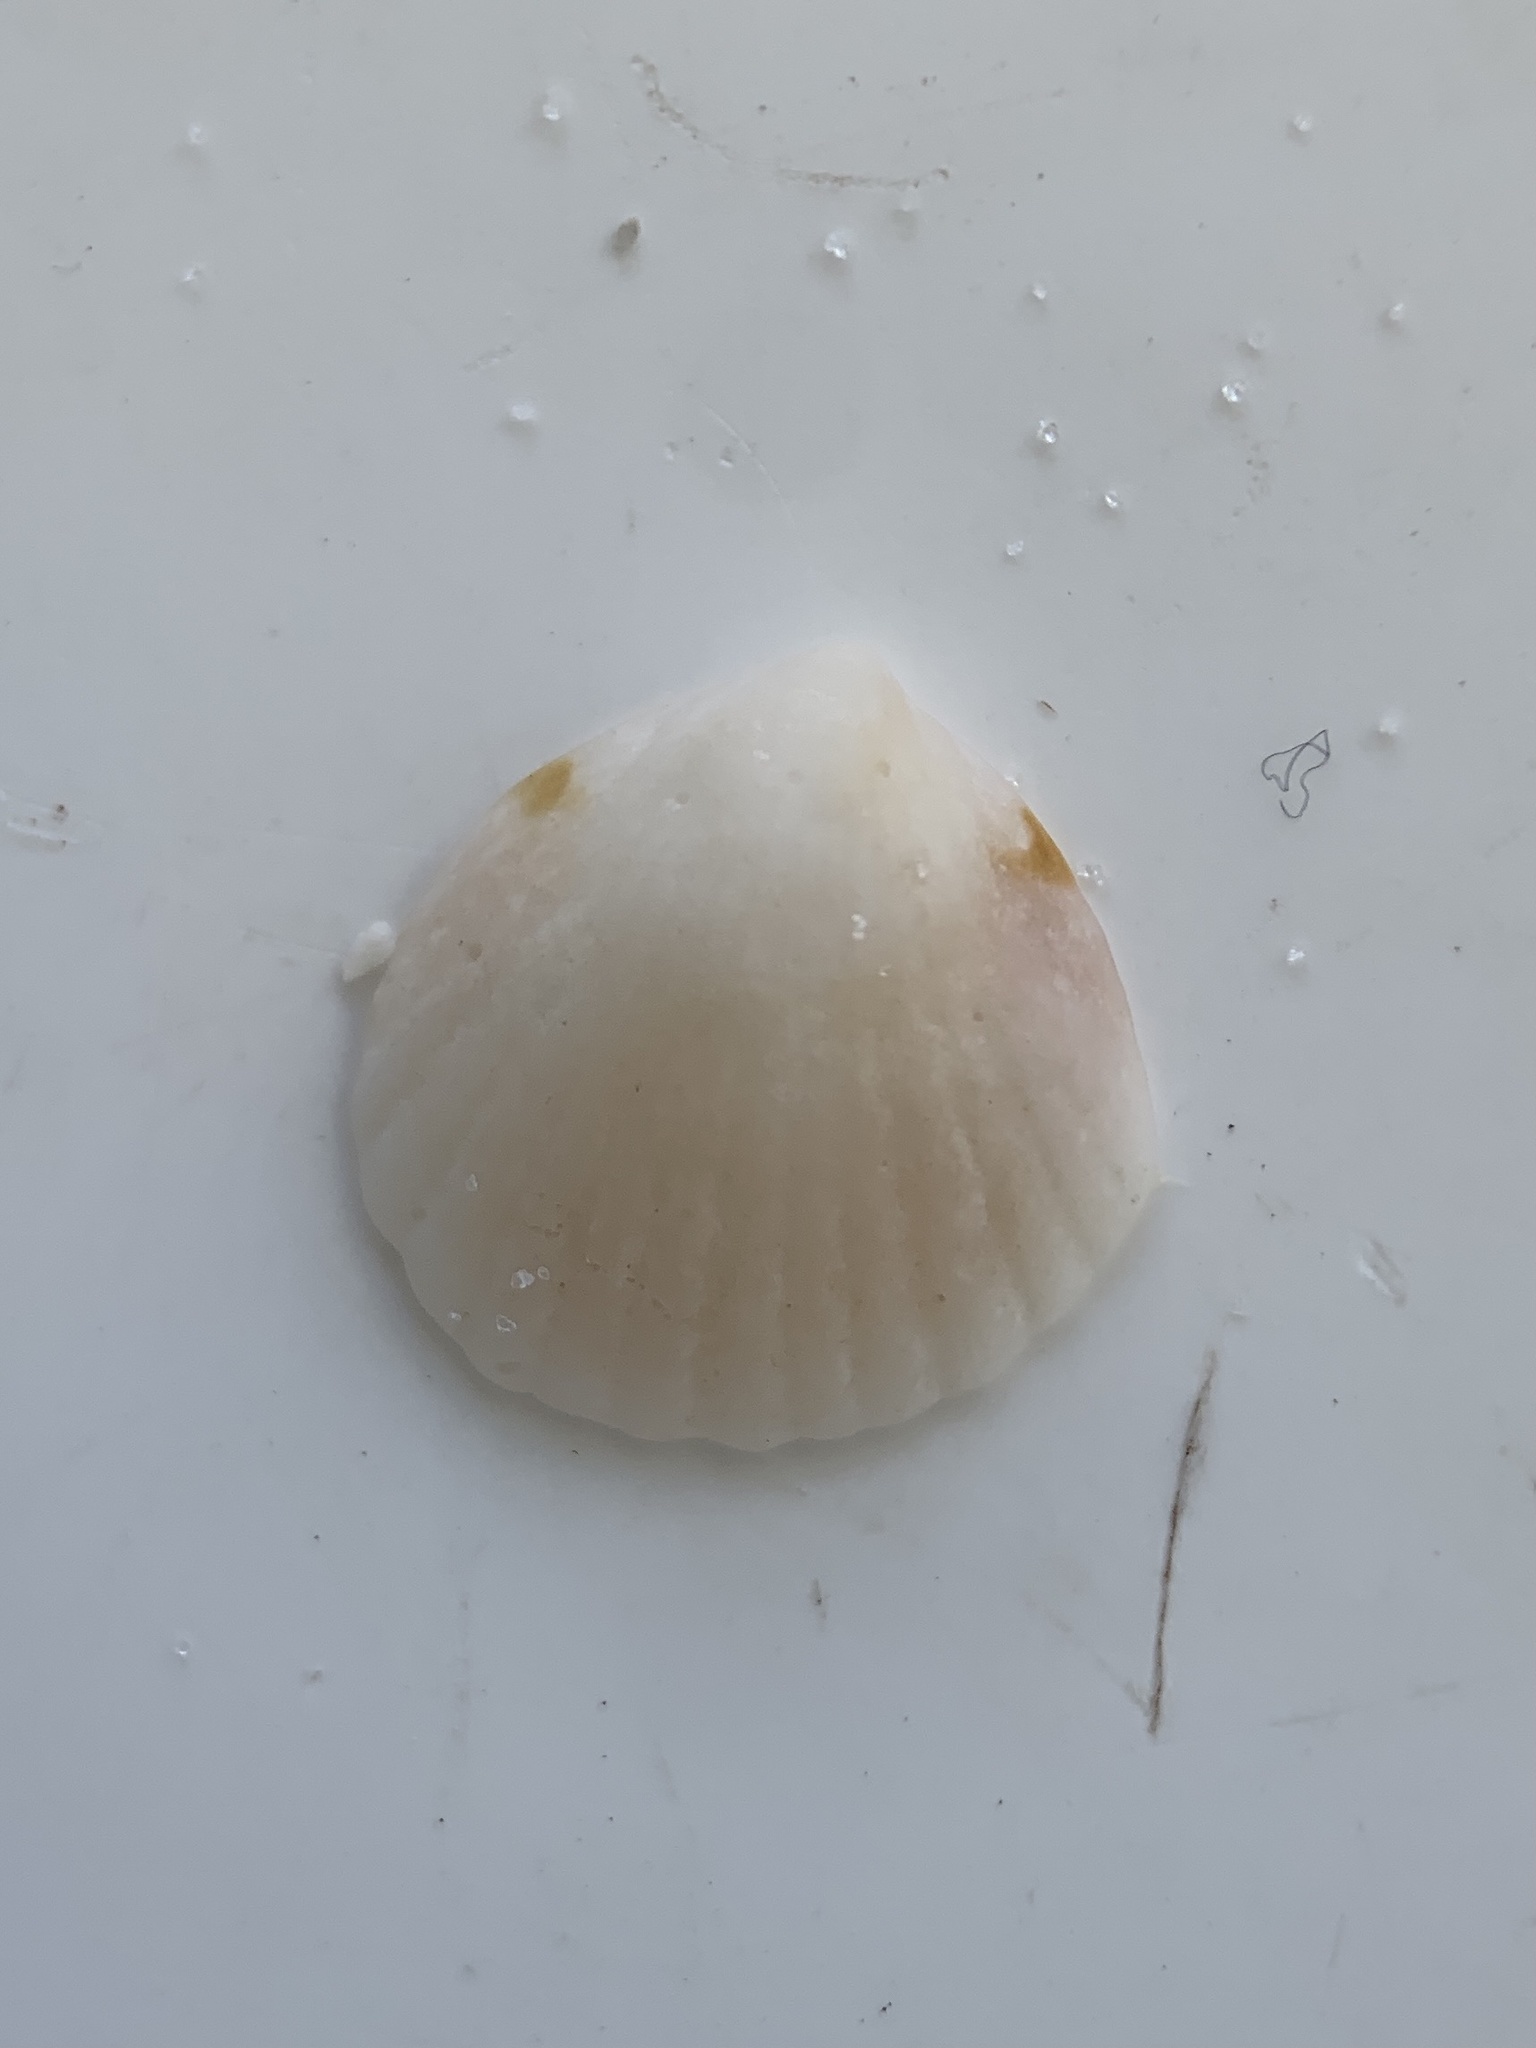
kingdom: Animalia
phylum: Mollusca
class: Bivalvia
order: Arcida
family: Glycymerididae
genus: Tucetona
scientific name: Tucetona pectinata
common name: Comb bittersweet
